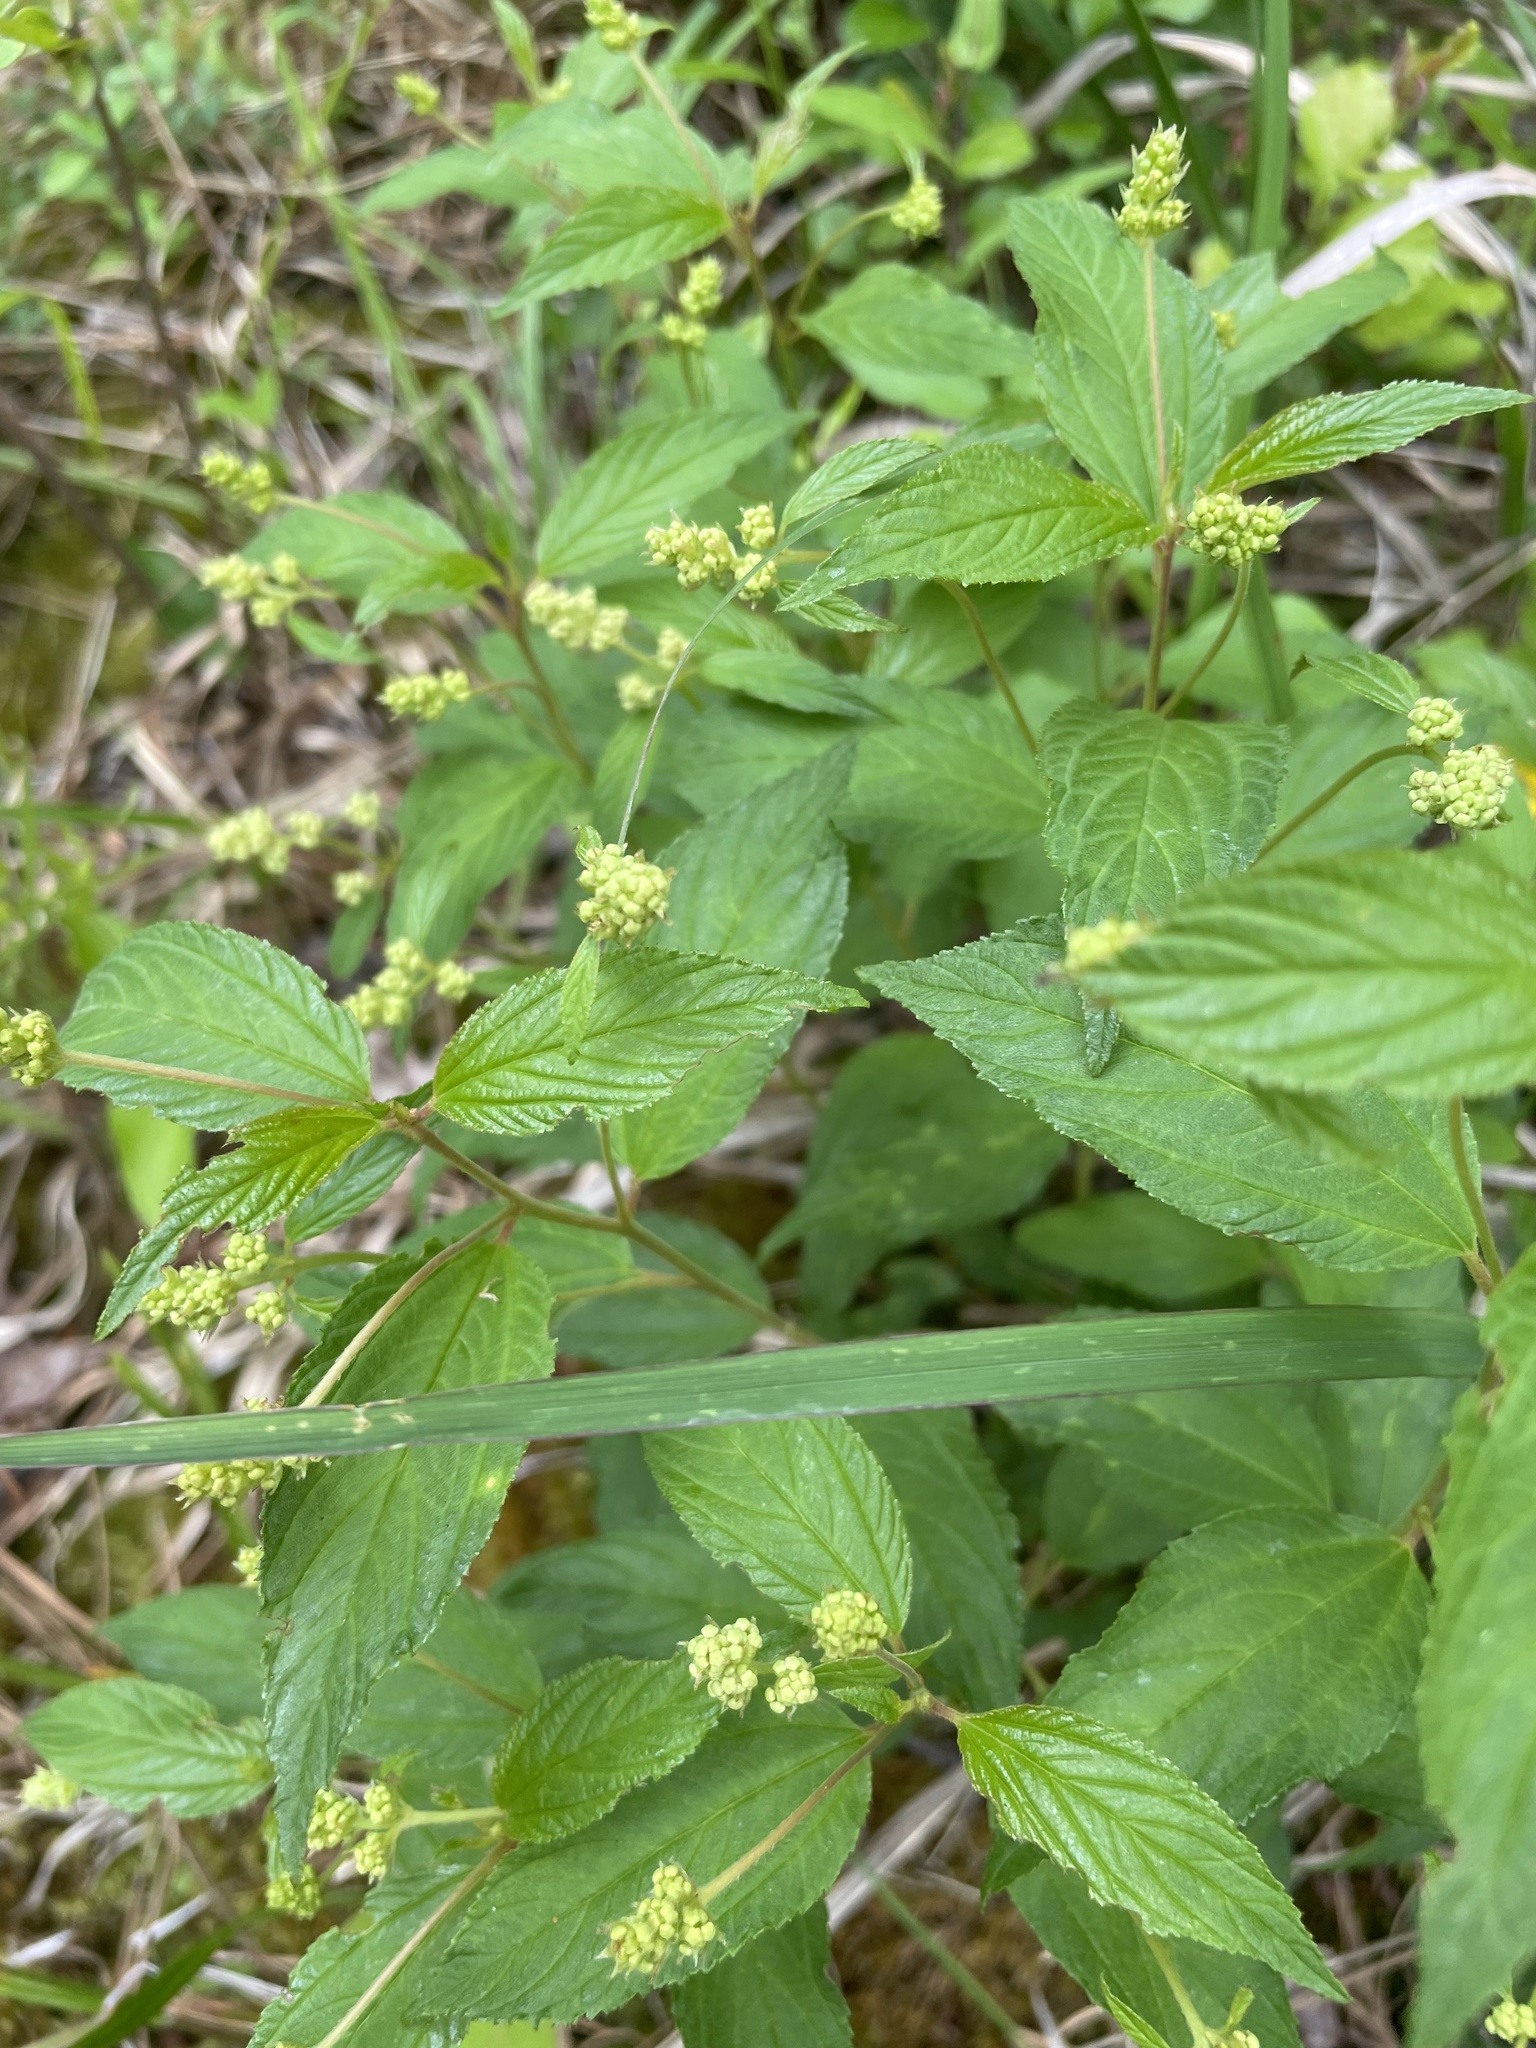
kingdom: Plantae
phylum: Tracheophyta
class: Magnoliopsida
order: Rosales
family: Rhamnaceae
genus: Ceanothus
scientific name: Ceanothus americanus
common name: Redroot
